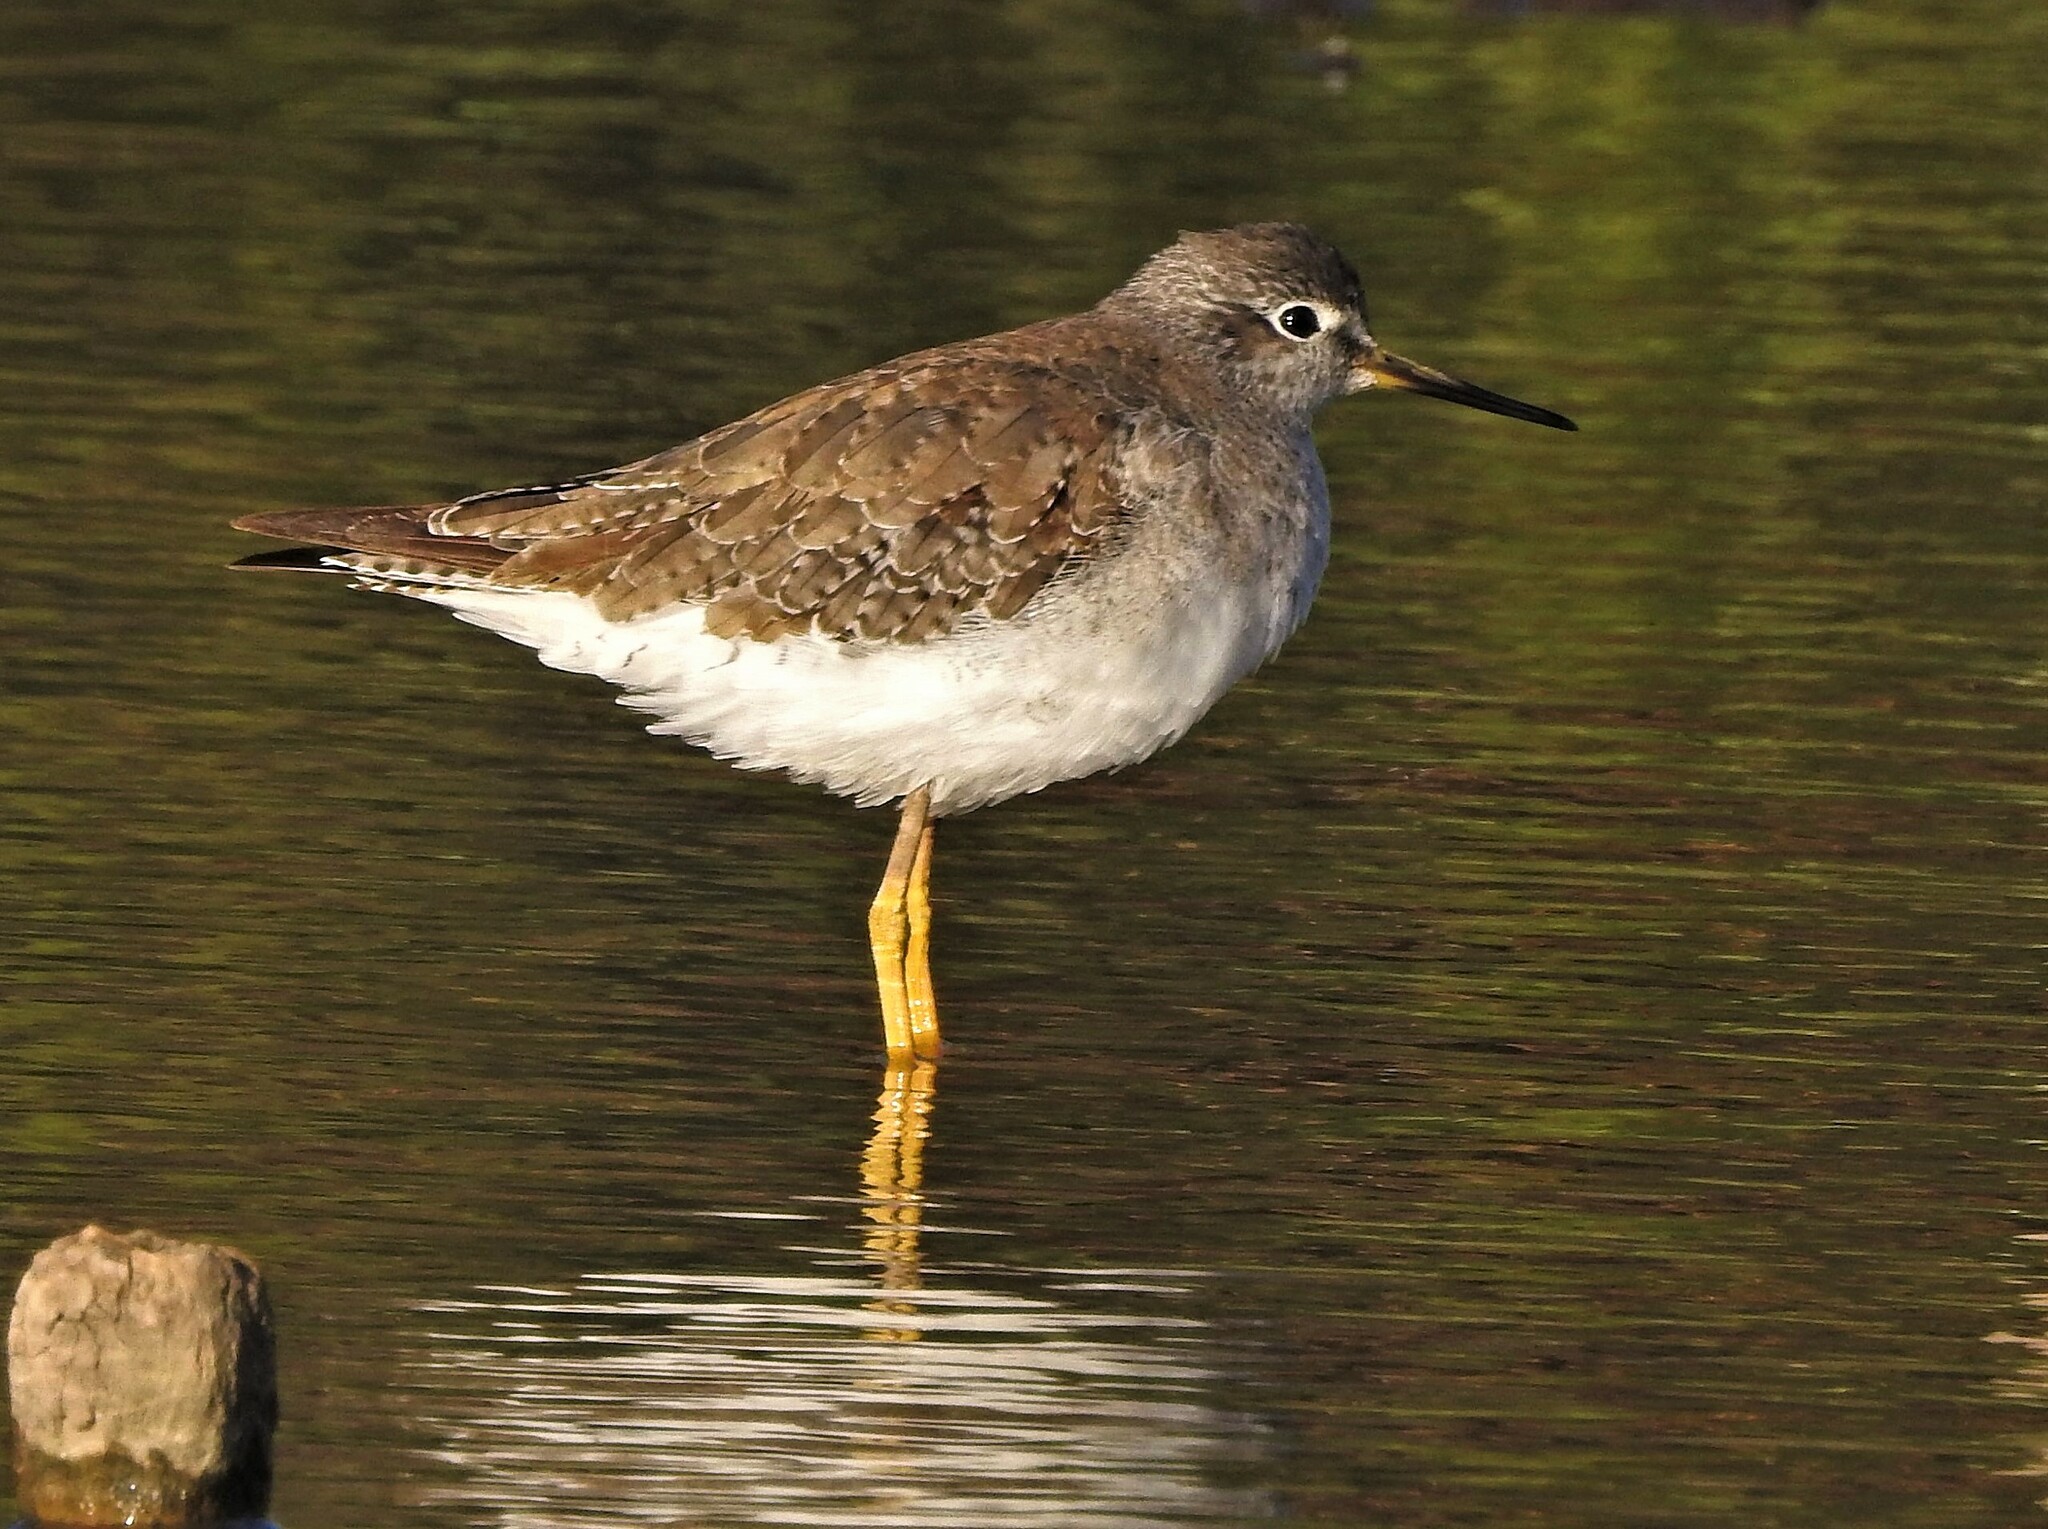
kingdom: Animalia
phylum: Chordata
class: Aves
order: Charadriiformes
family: Scolopacidae
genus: Tringa
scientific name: Tringa flavipes
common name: Lesser yellowlegs
